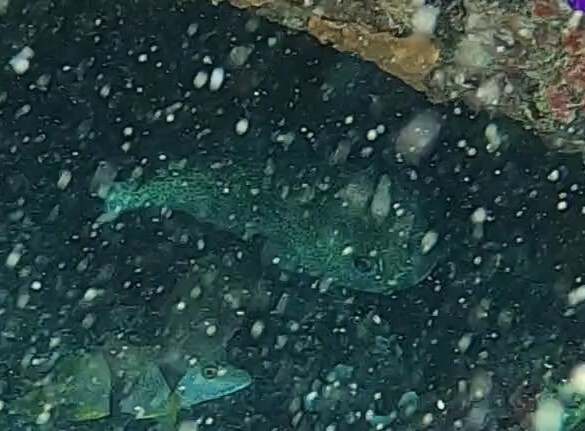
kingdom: Animalia
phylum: Chordata
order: Tetraodontiformes
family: Diodontidae
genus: Diodon
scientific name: Diodon hystrix
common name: Giant porcupinefish
